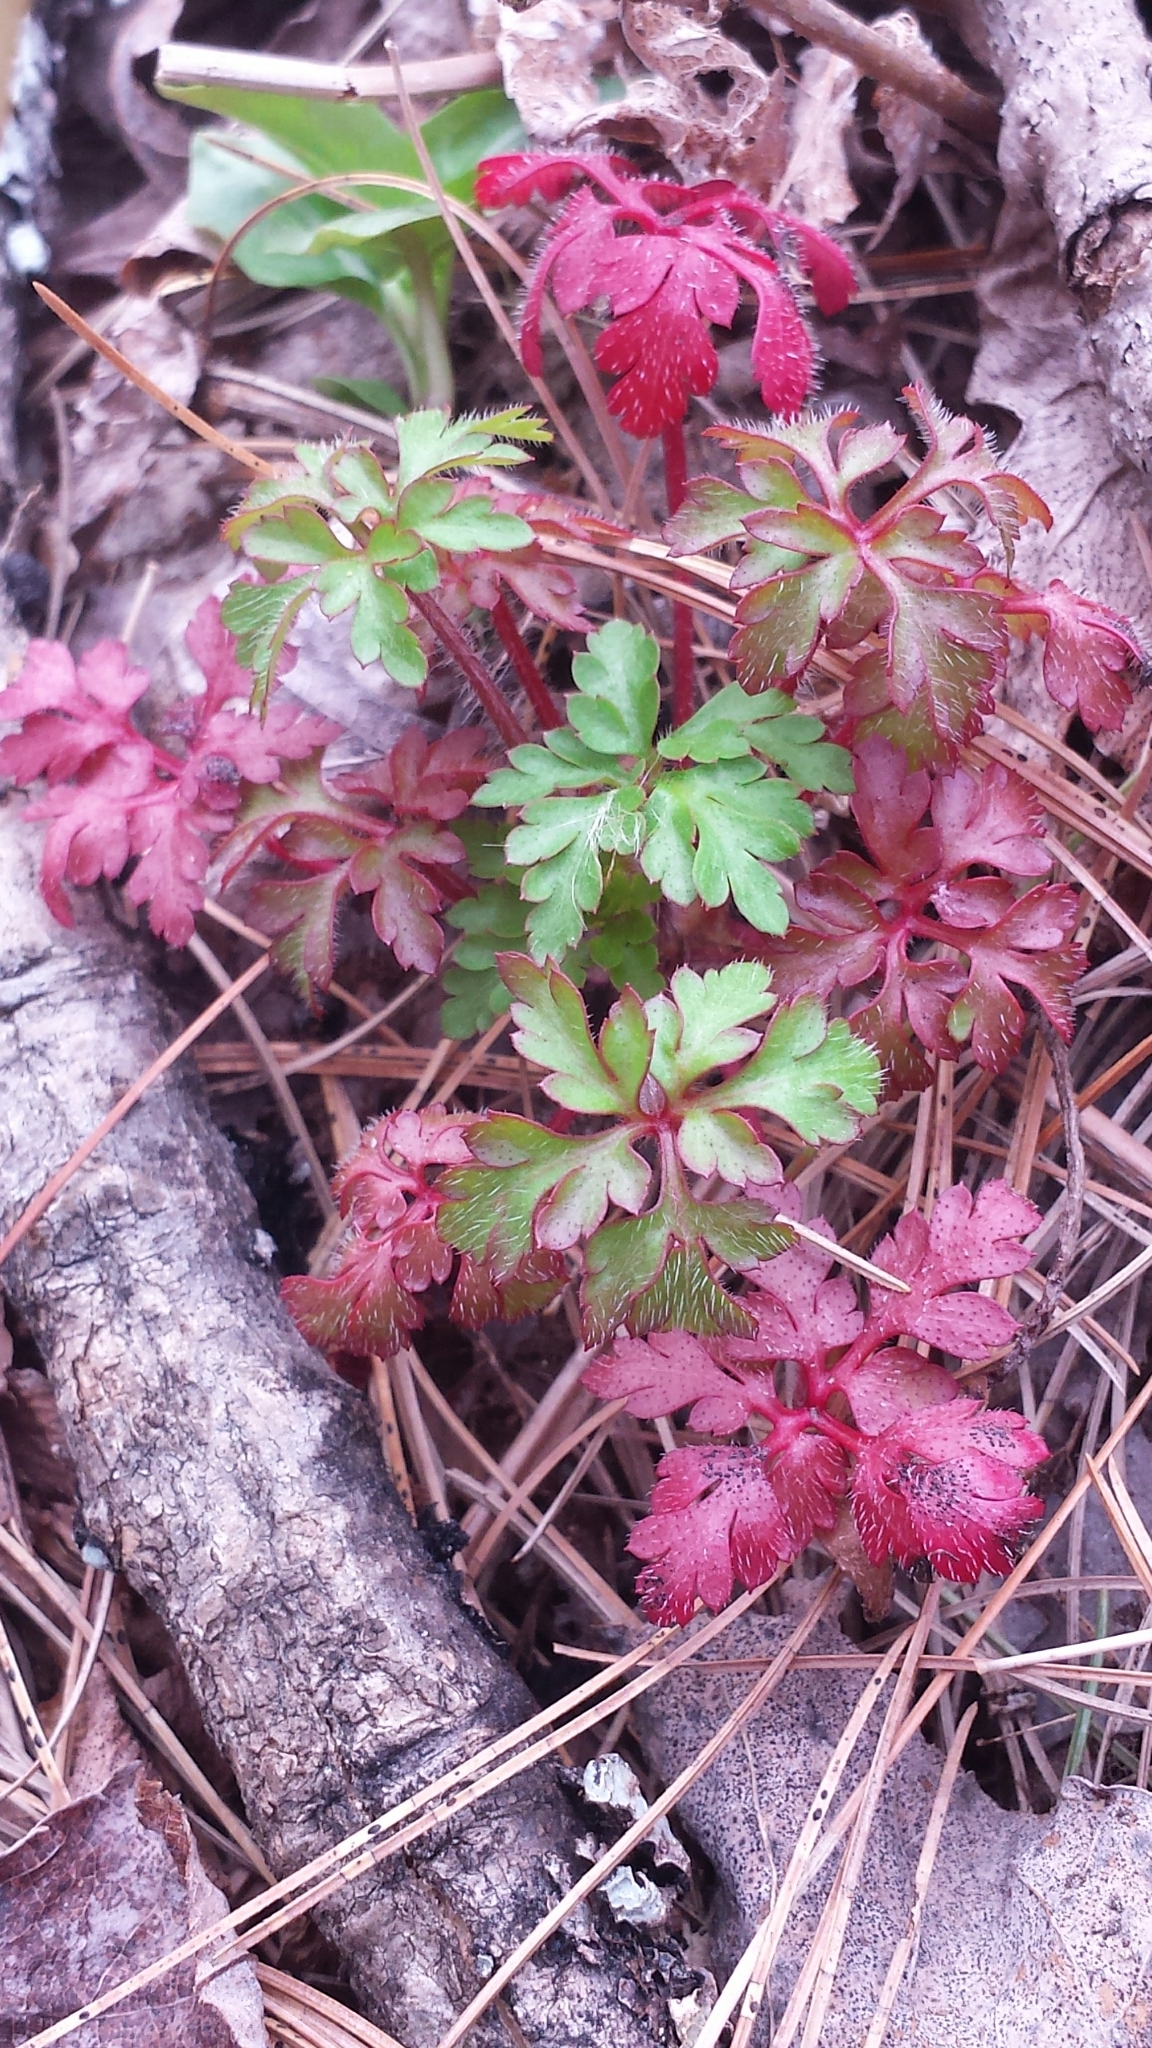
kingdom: Plantae
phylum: Tracheophyta
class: Magnoliopsida
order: Geraniales
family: Geraniaceae
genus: Geranium
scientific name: Geranium robertianum
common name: Herb-robert
